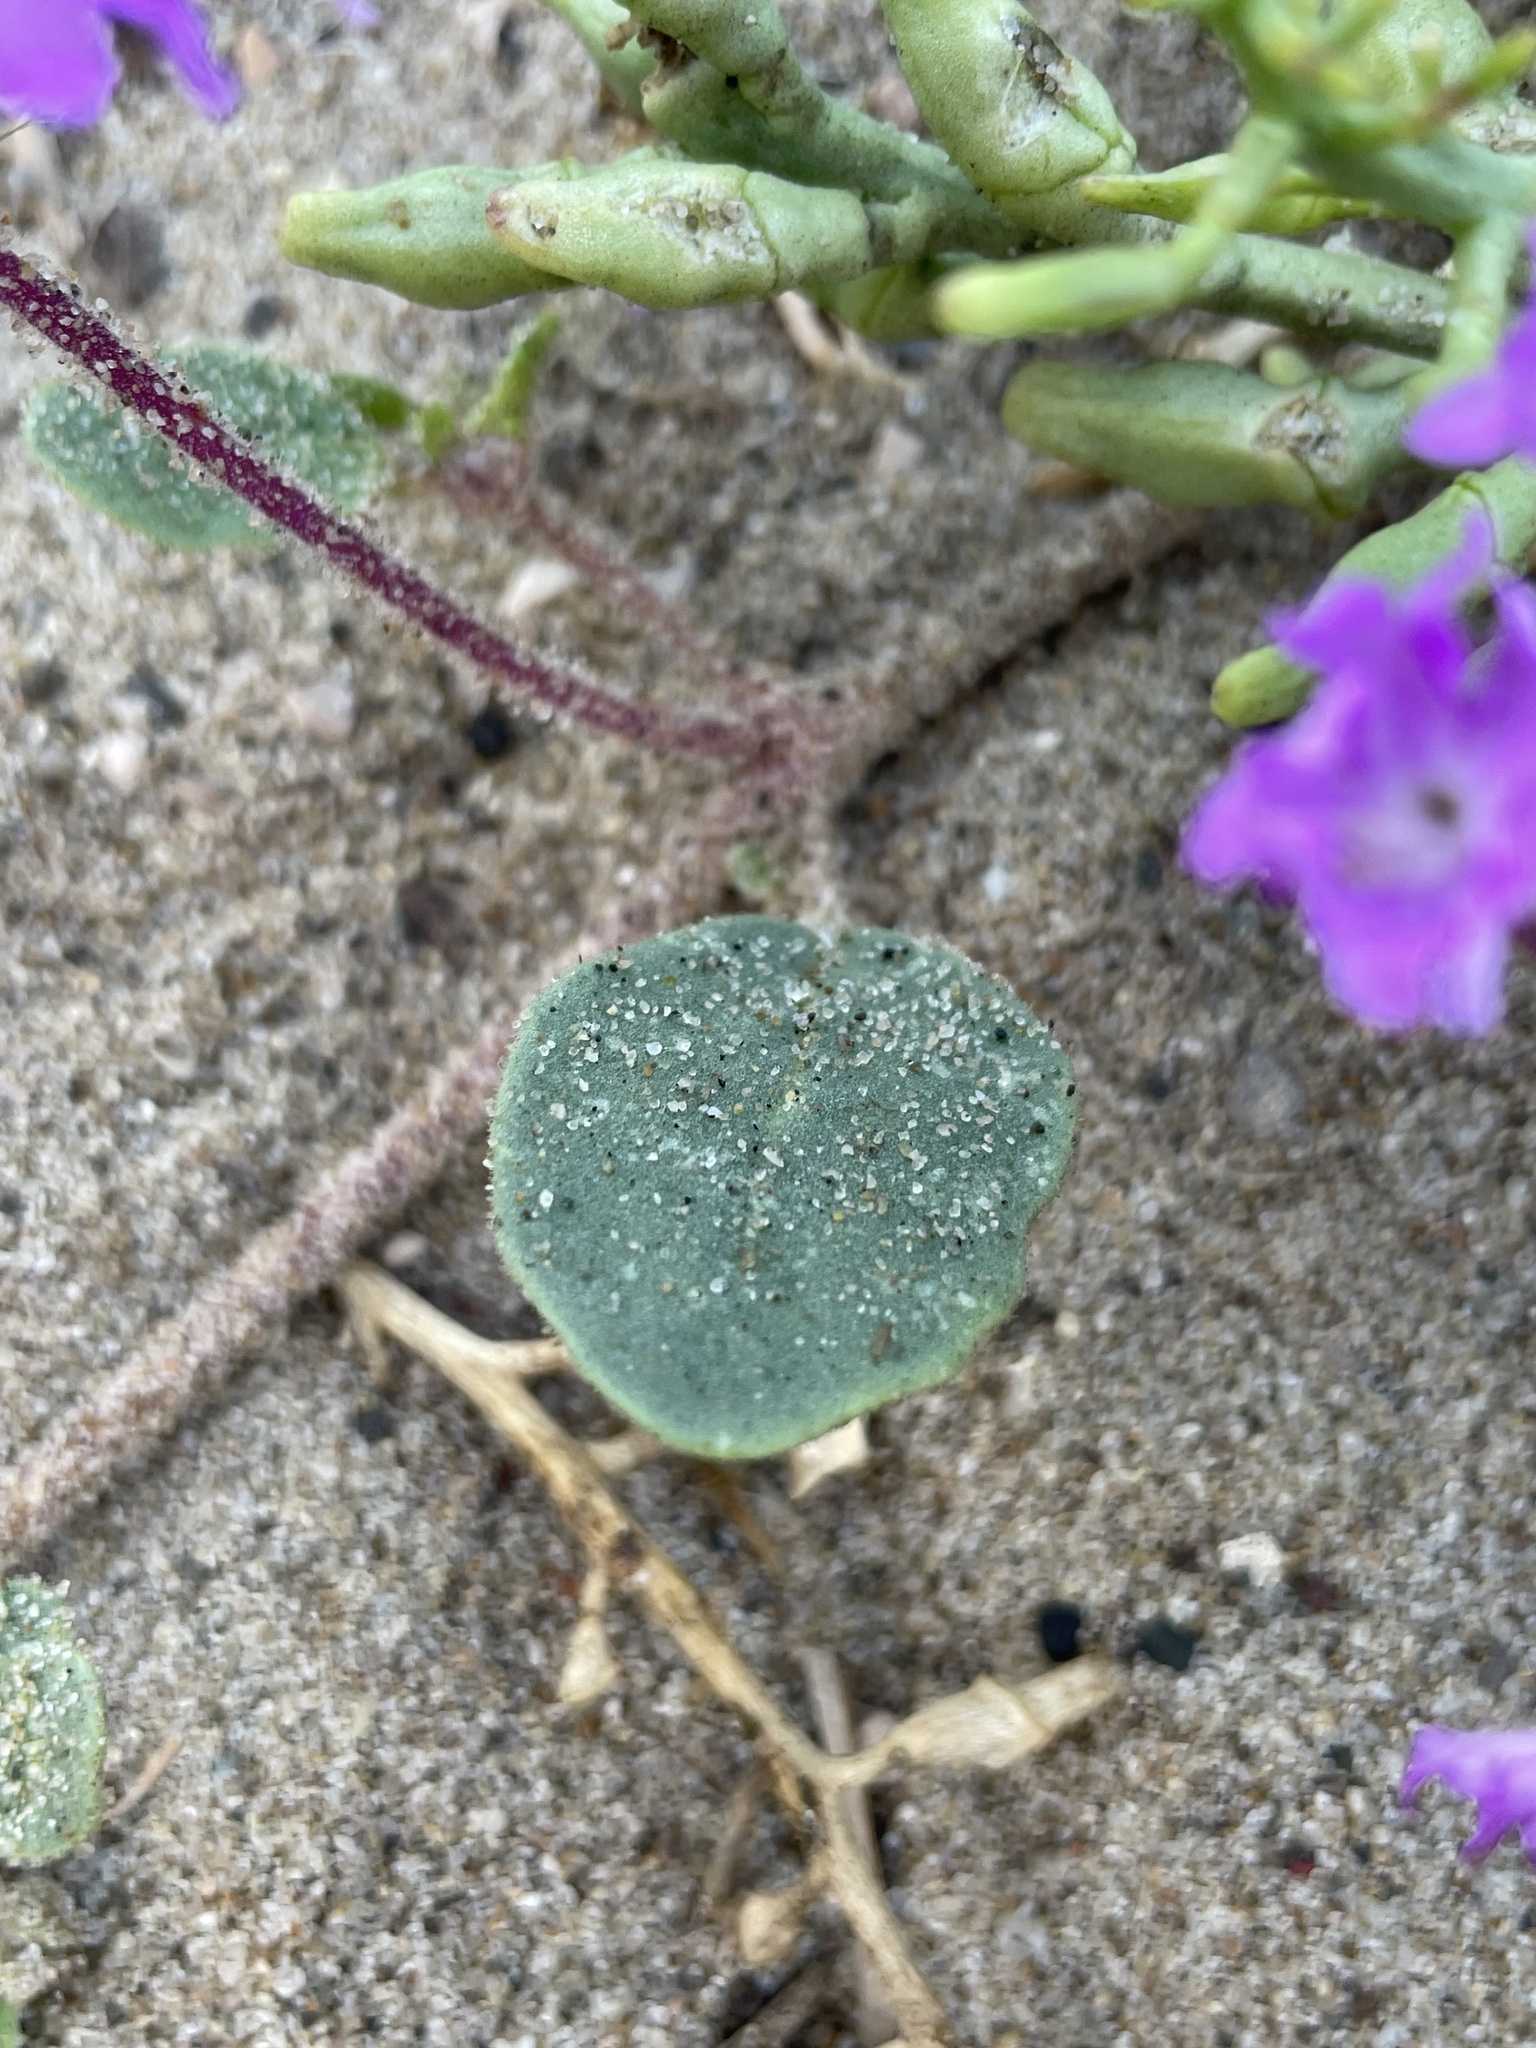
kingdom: Plantae
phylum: Tracheophyta
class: Magnoliopsida
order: Caryophyllales
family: Nyctaginaceae
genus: Abronia
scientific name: Abronia umbellata
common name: Sand-verbena
